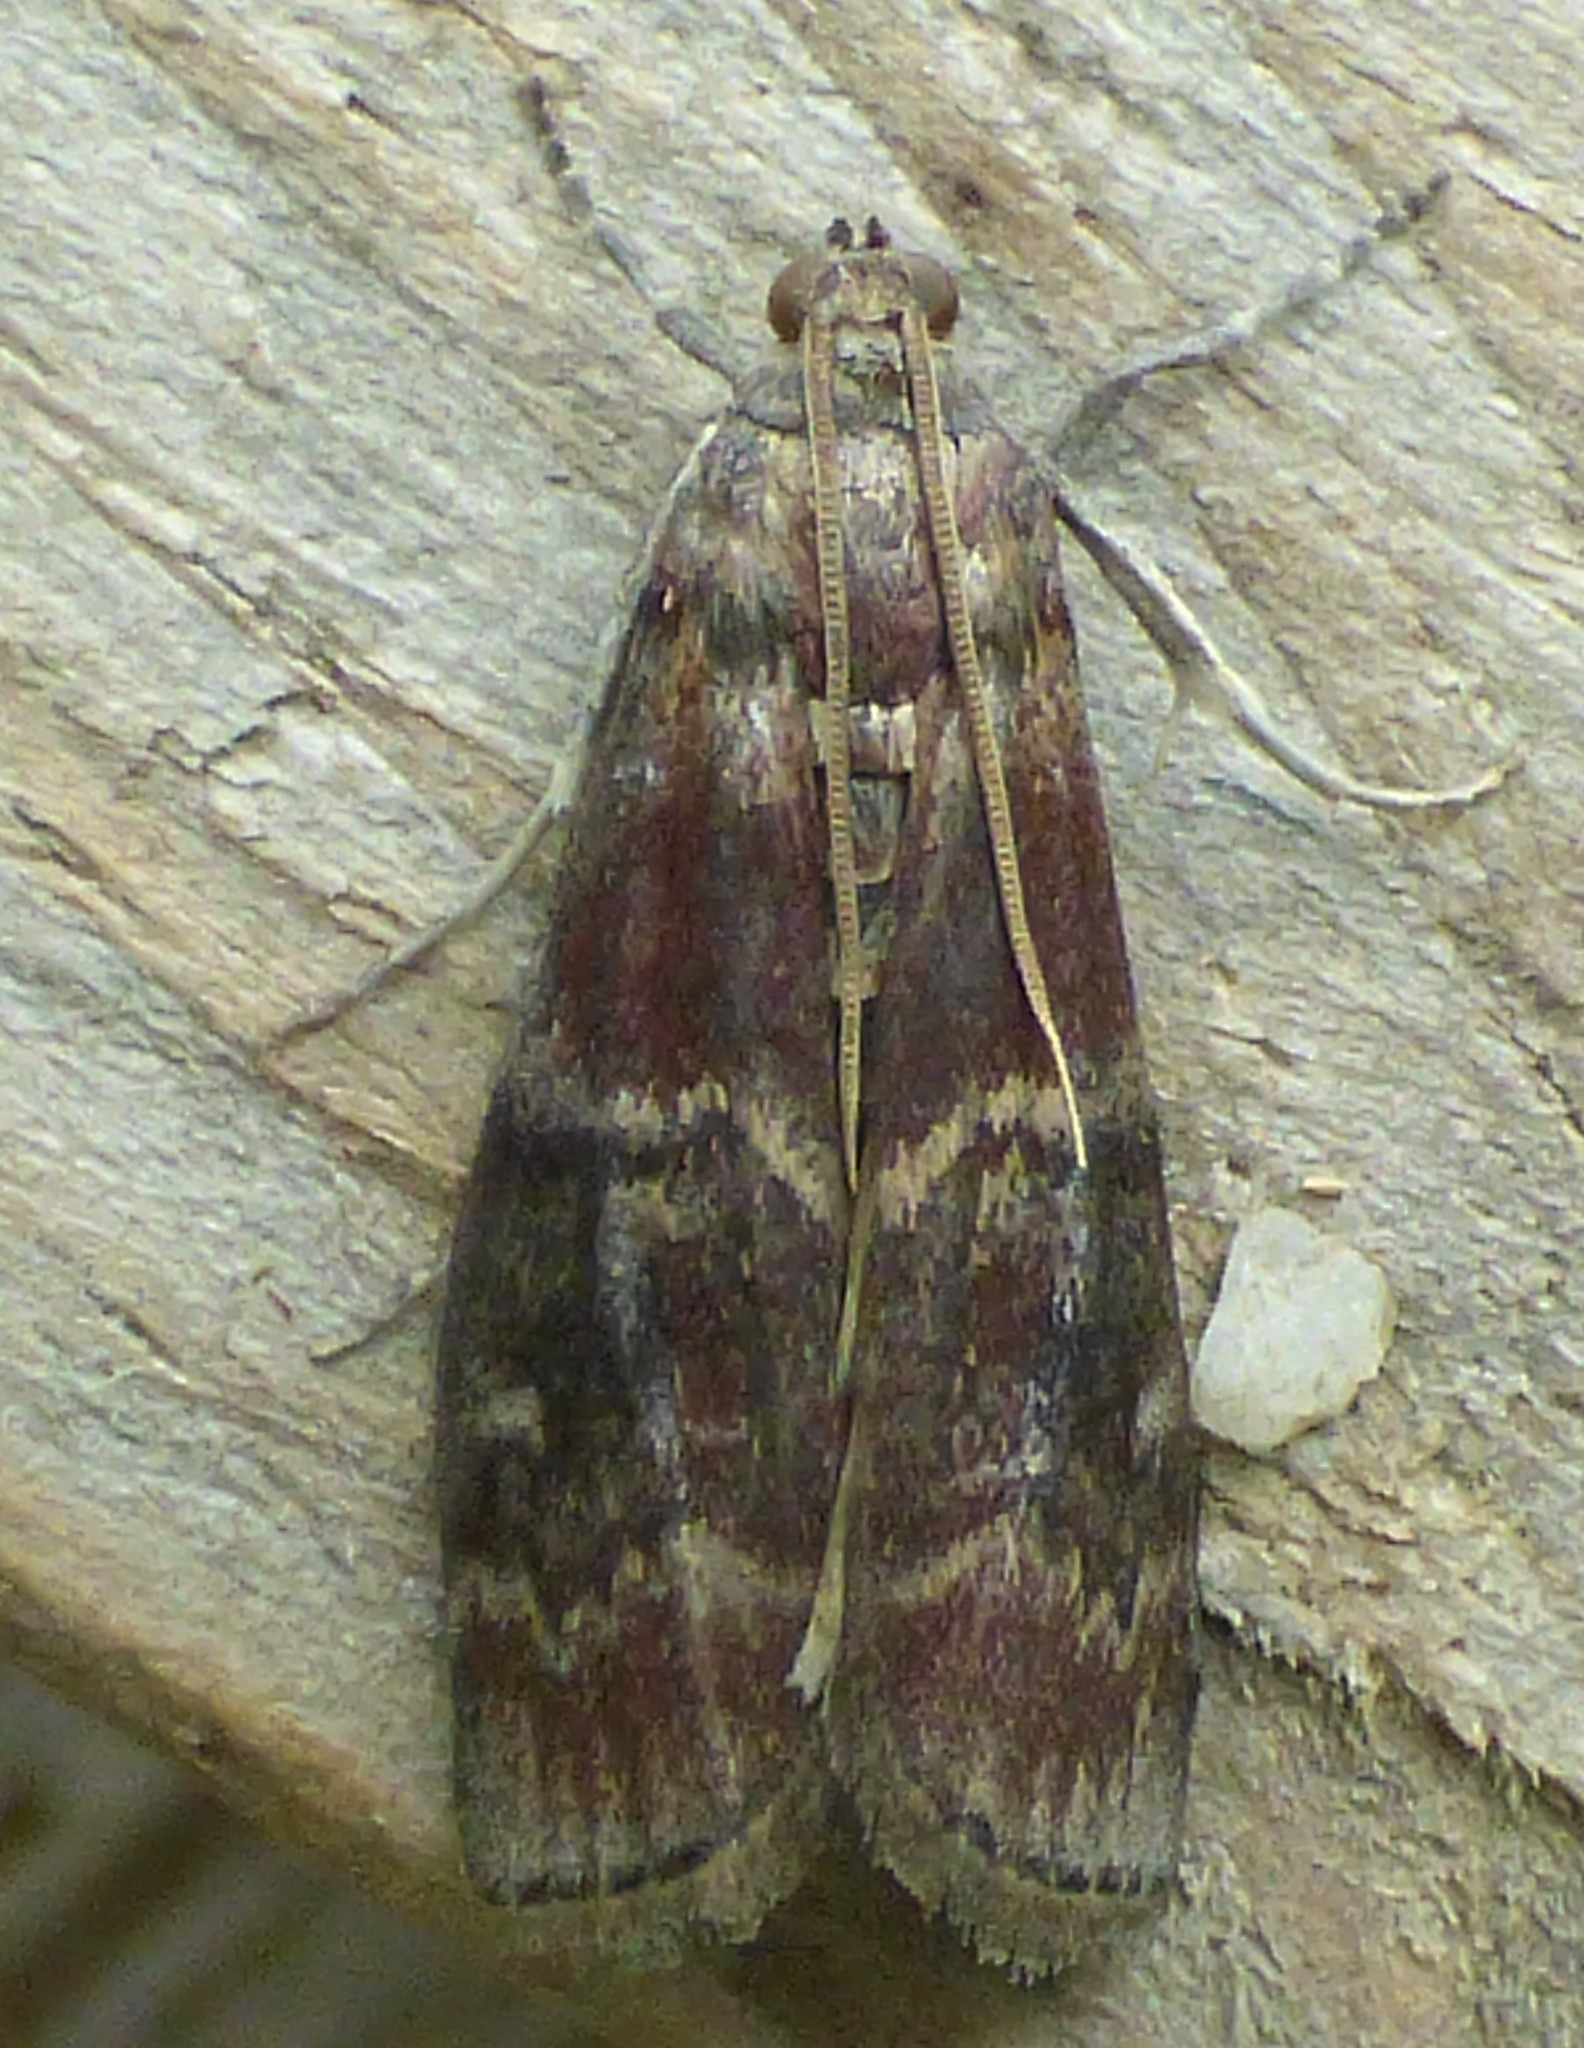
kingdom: Animalia
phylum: Arthropoda
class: Insecta
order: Lepidoptera
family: Pyralidae
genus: Euzophera
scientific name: Euzophera ostricolorella
